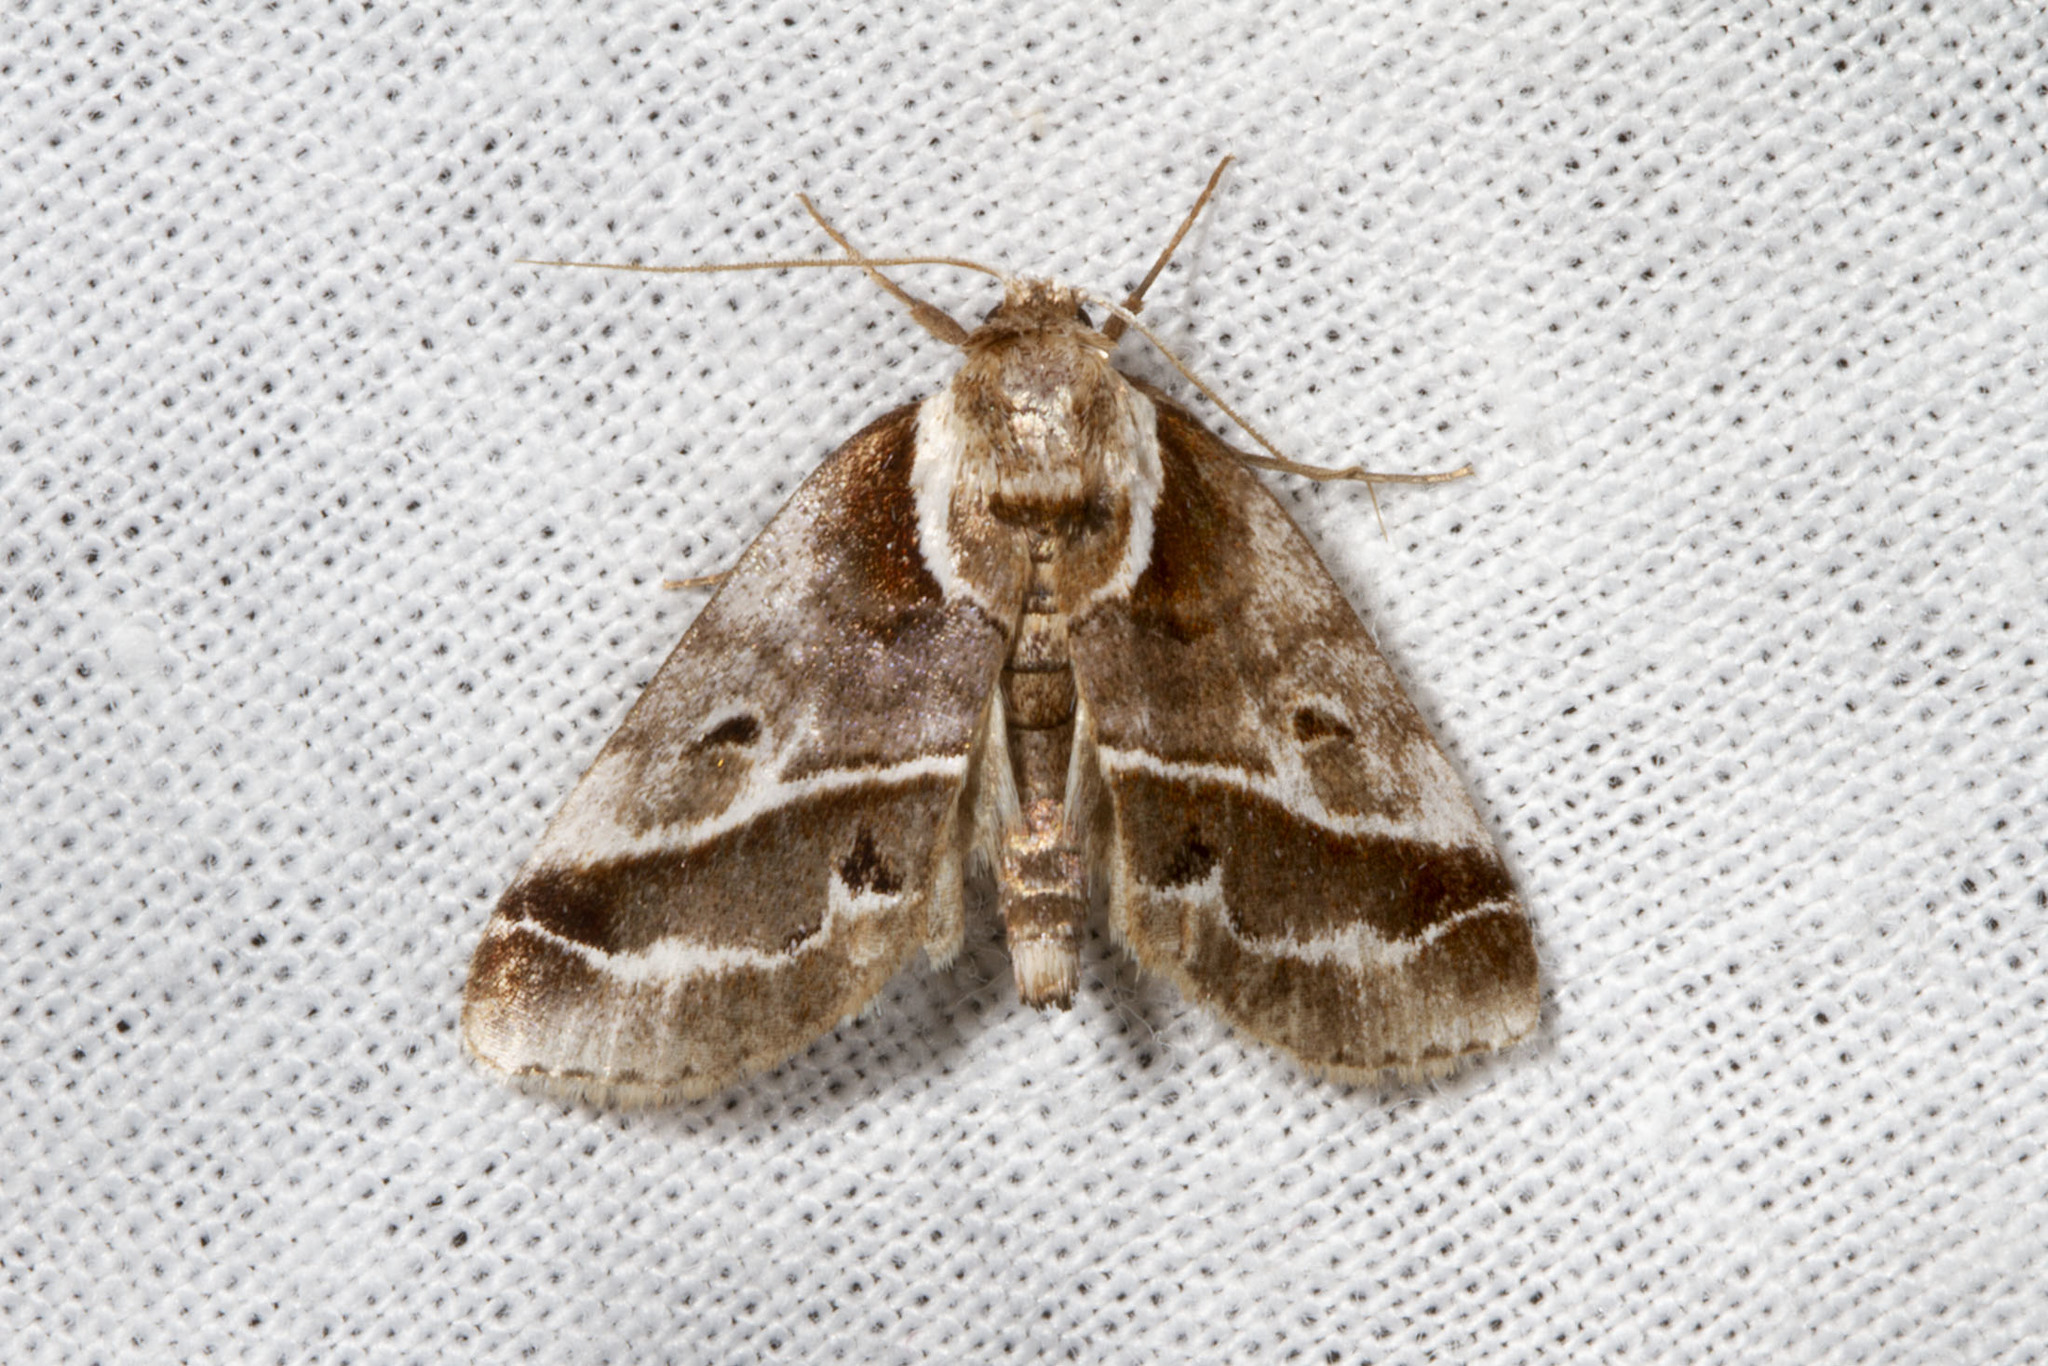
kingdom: Animalia
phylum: Arthropoda
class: Insecta
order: Lepidoptera
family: Nolidae
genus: Baileya
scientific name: Baileya doubledayi
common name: Doubleday's baileya moth
